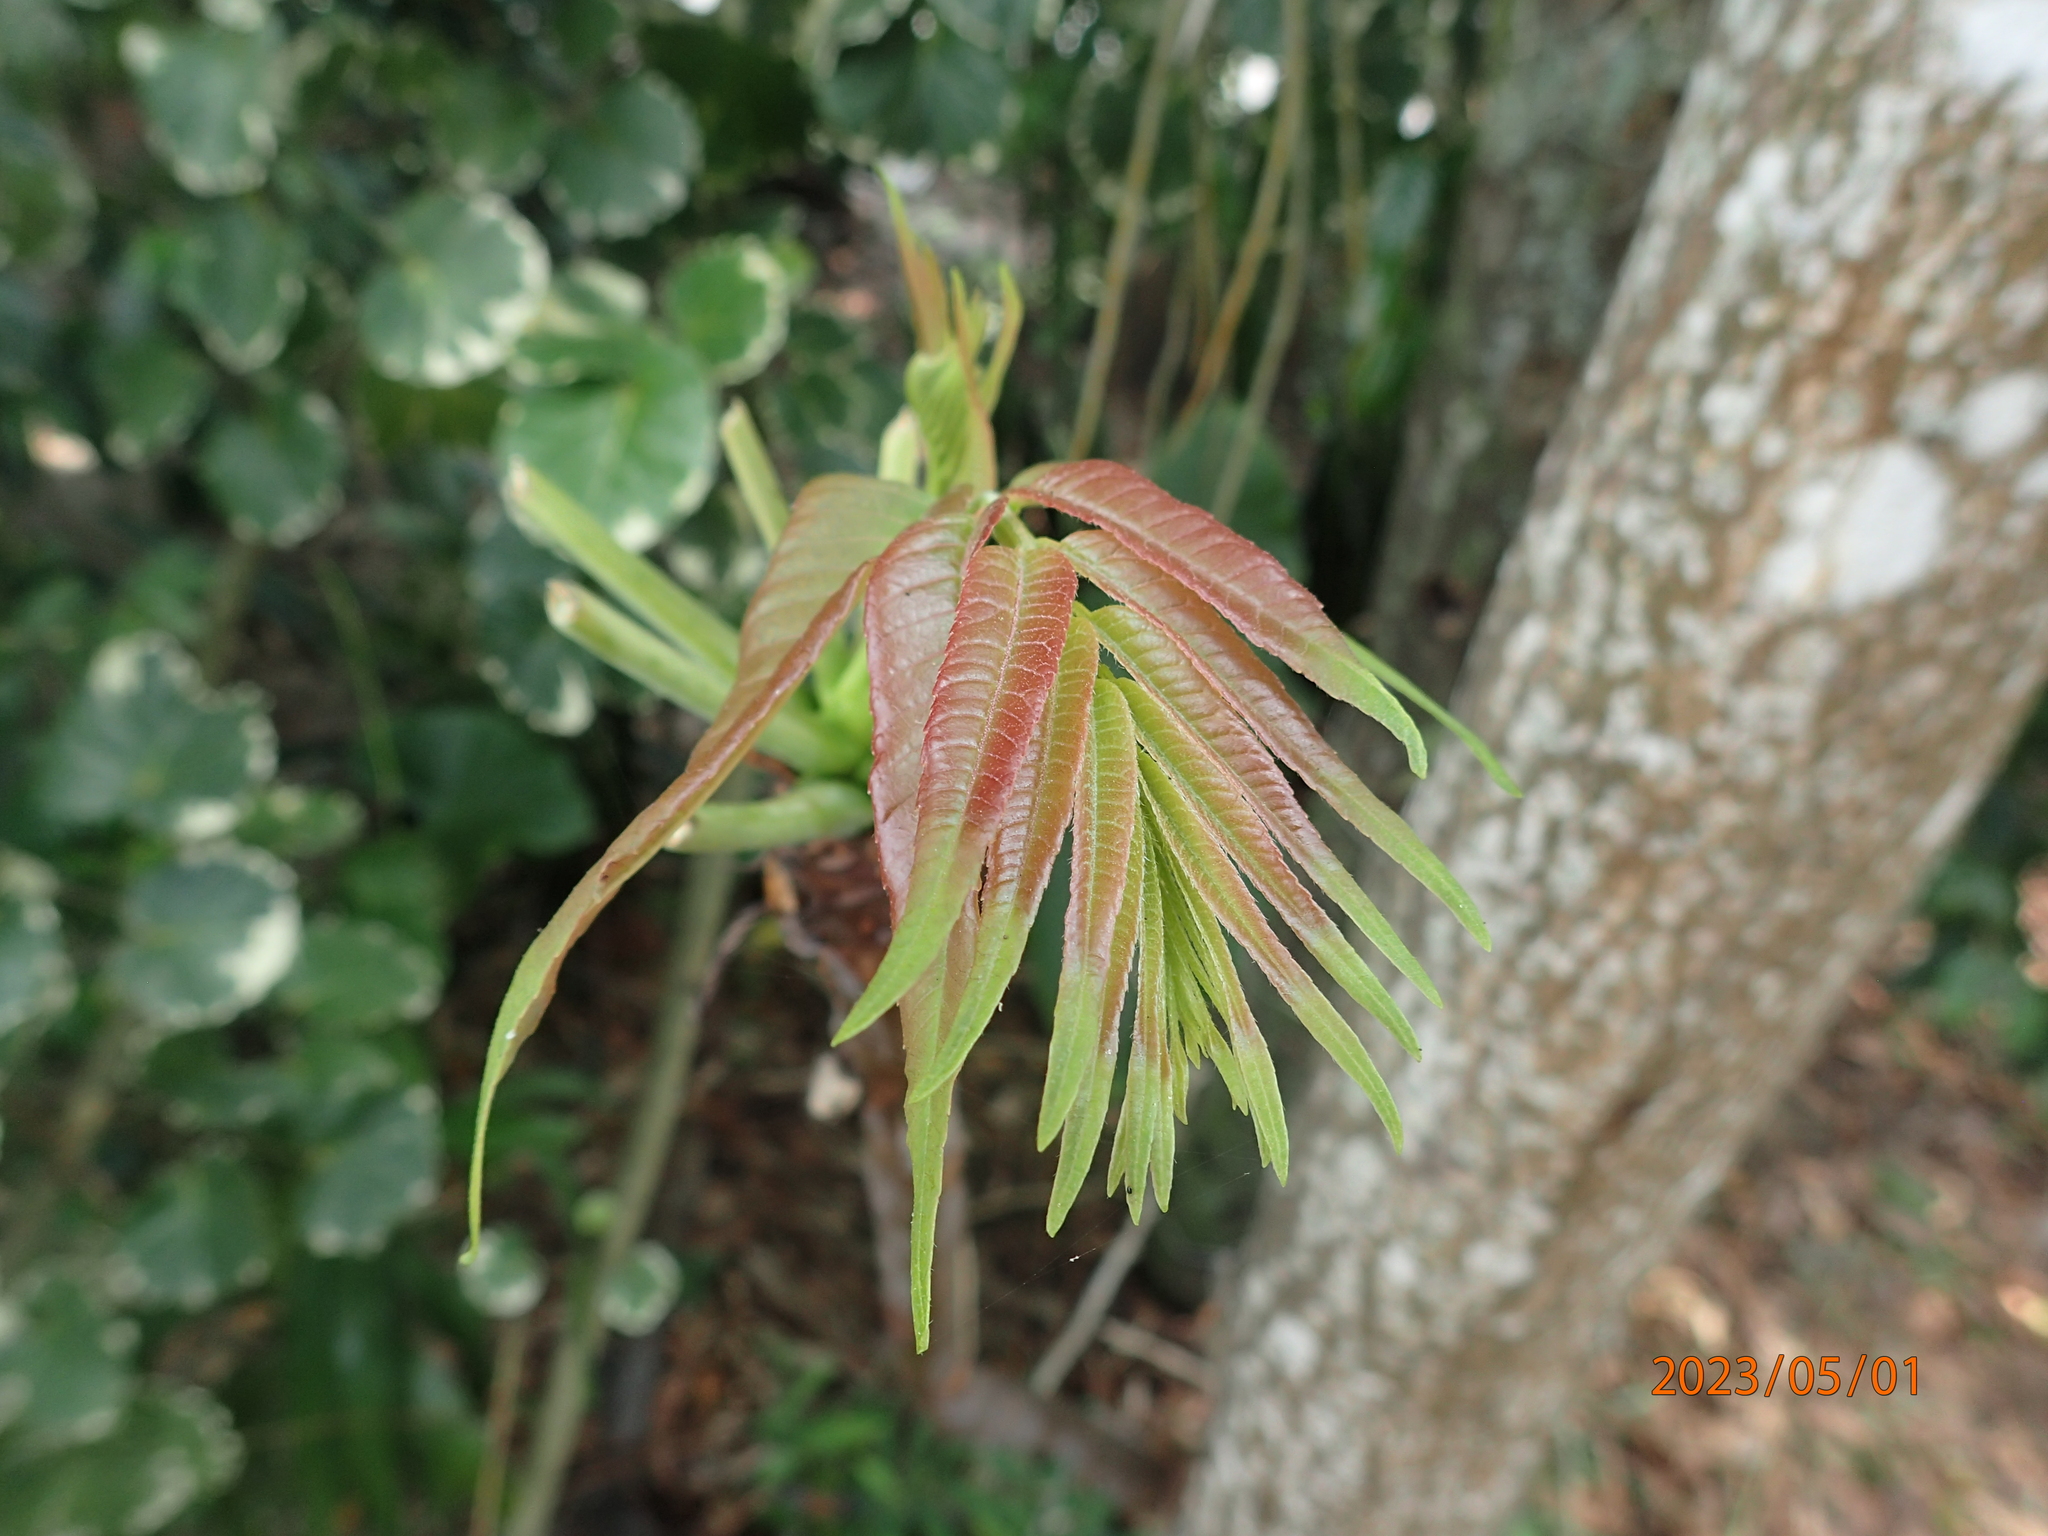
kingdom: Plantae
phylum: Tracheophyta
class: Magnoliopsida
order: Sapindales
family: Meliaceae
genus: Toona
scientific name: Toona sinensis
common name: Red toon
